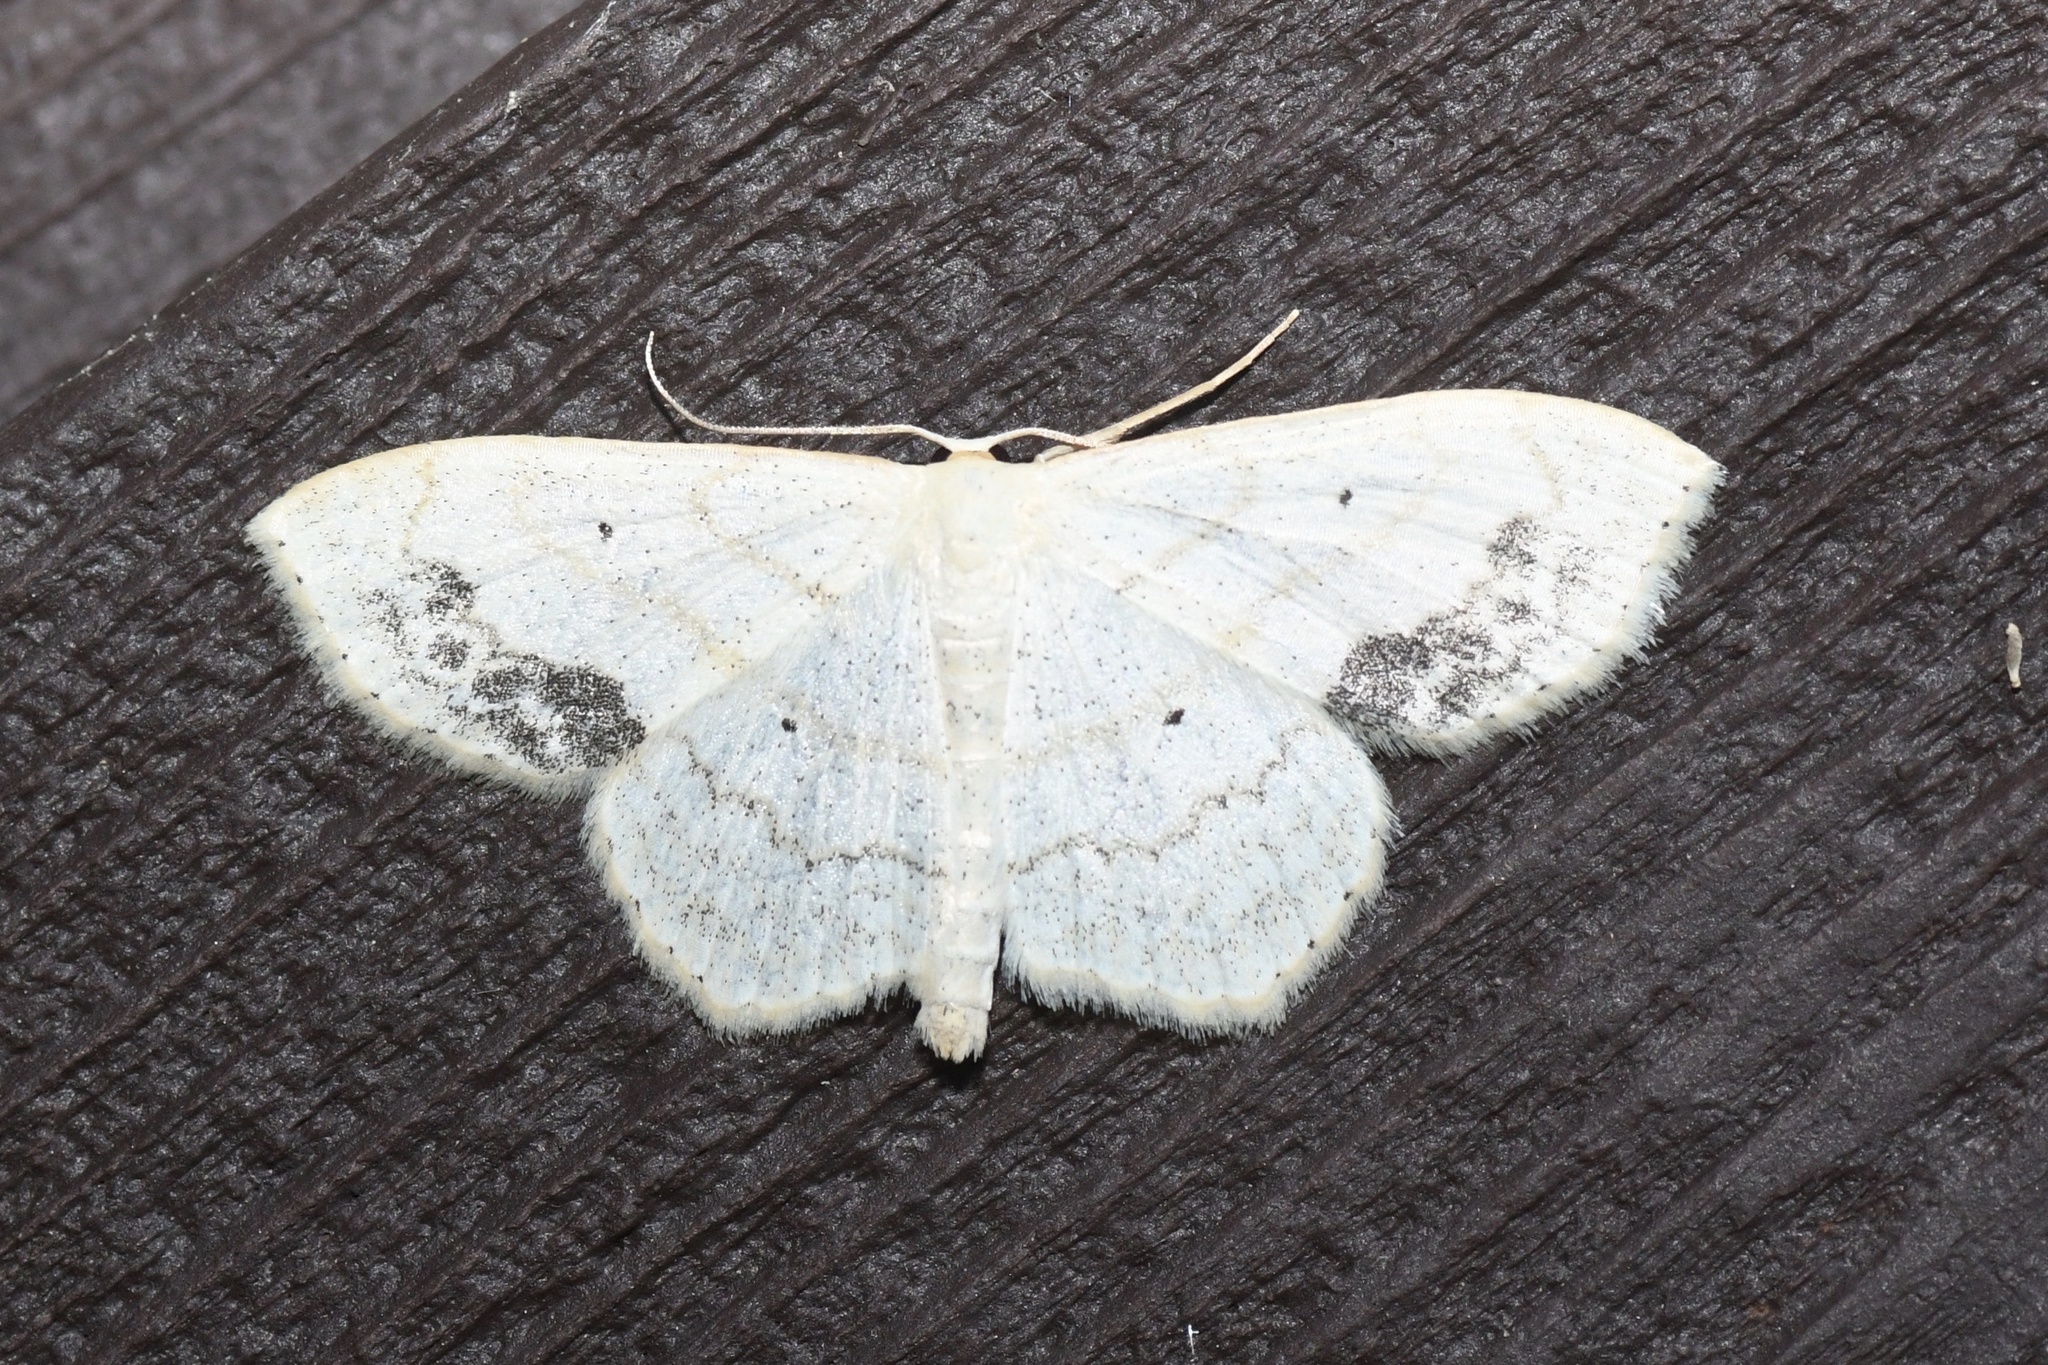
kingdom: Animalia
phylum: Arthropoda
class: Insecta
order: Lepidoptera
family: Geometridae
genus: Scopula
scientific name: Scopula limboundata
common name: Large lace border
